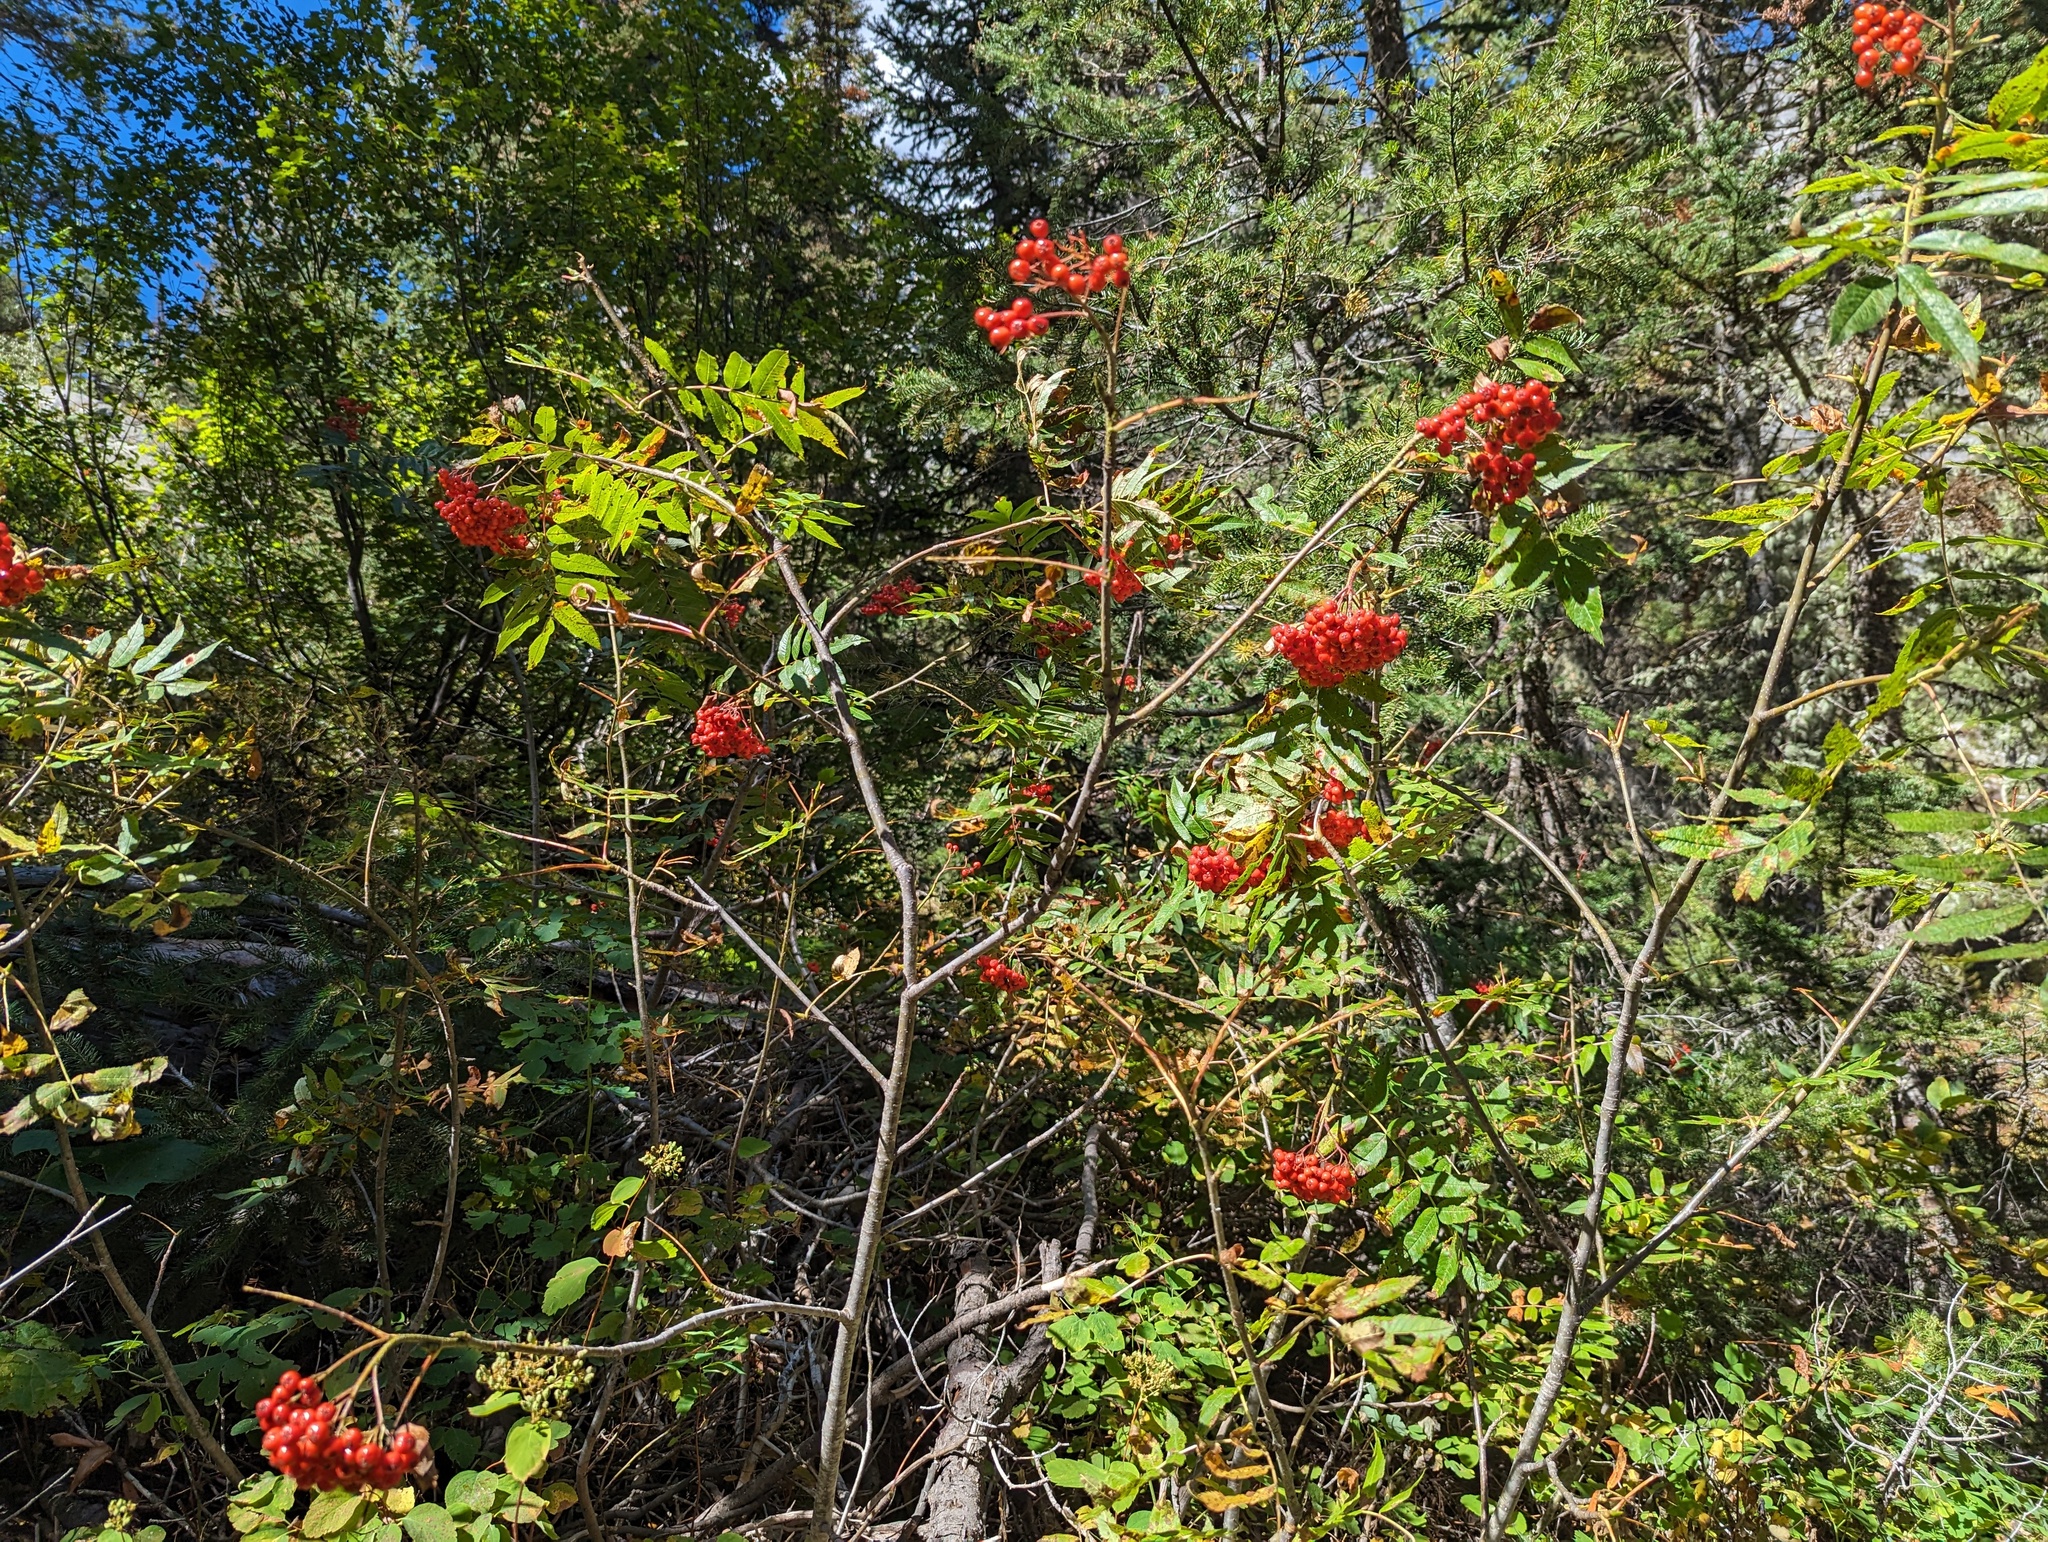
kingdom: Plantae
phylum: Tracheophyta
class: Magnoliopsida
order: Rosales
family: Rosaceae
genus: Sorbus
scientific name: Sorbus scopulina
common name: Greene's mountain-ash
